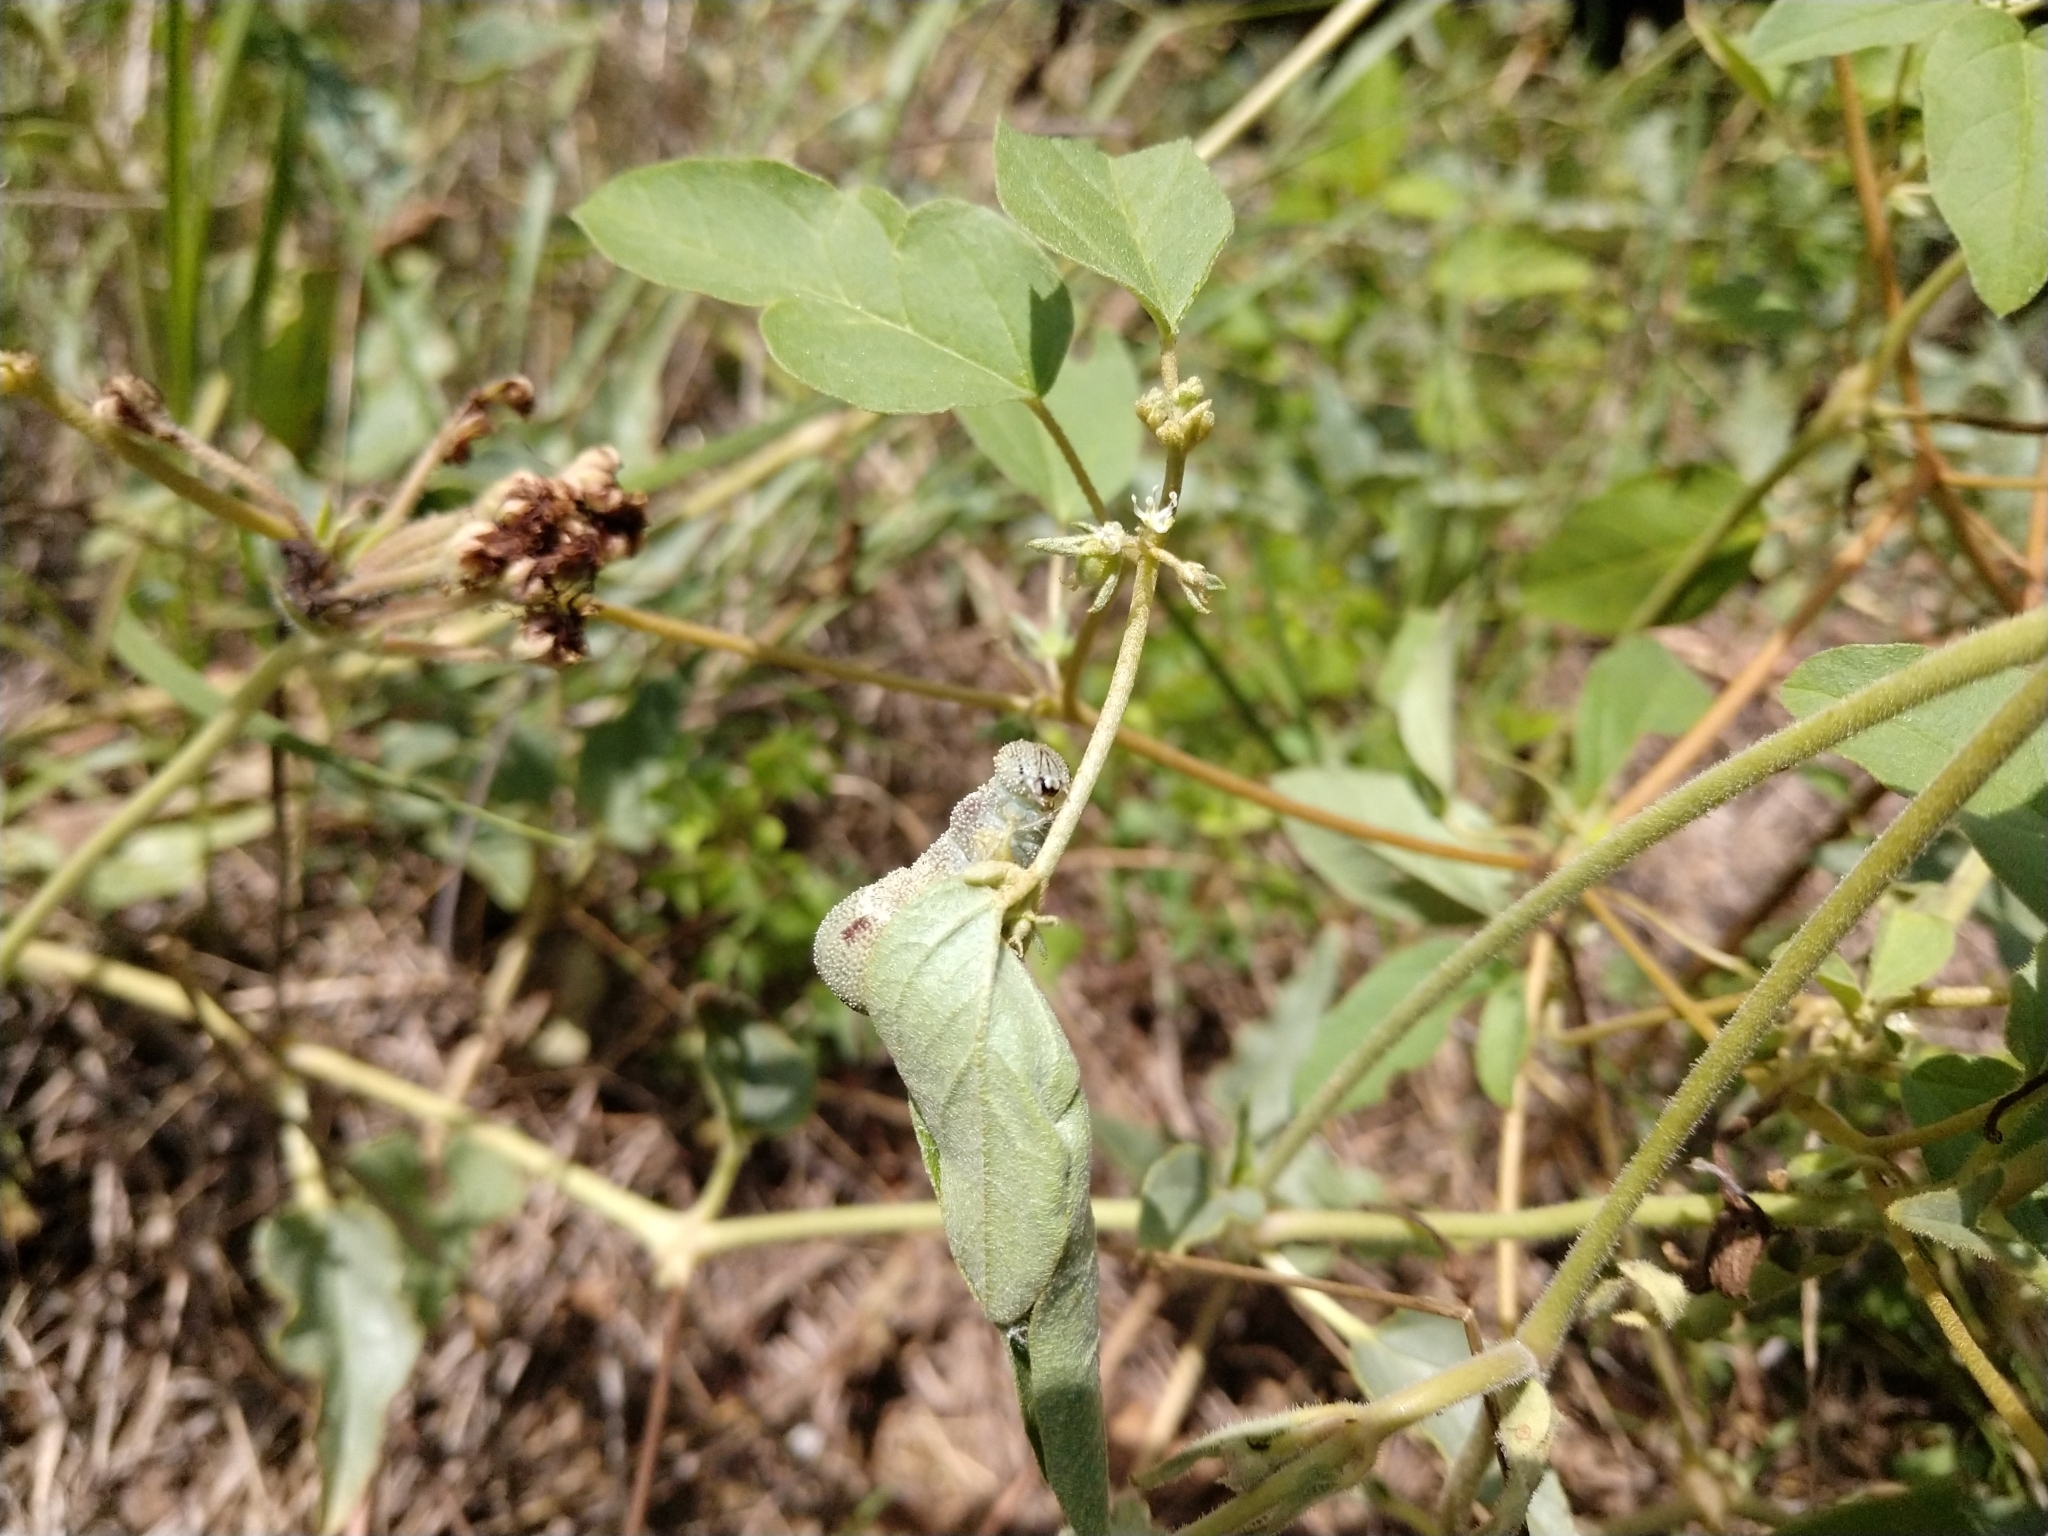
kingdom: Animalia
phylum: Arthropoda
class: Insecta
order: Lepidoptera
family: Nymphalidae
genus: Anaea
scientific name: Anaea andria
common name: Goatweed leafwing
